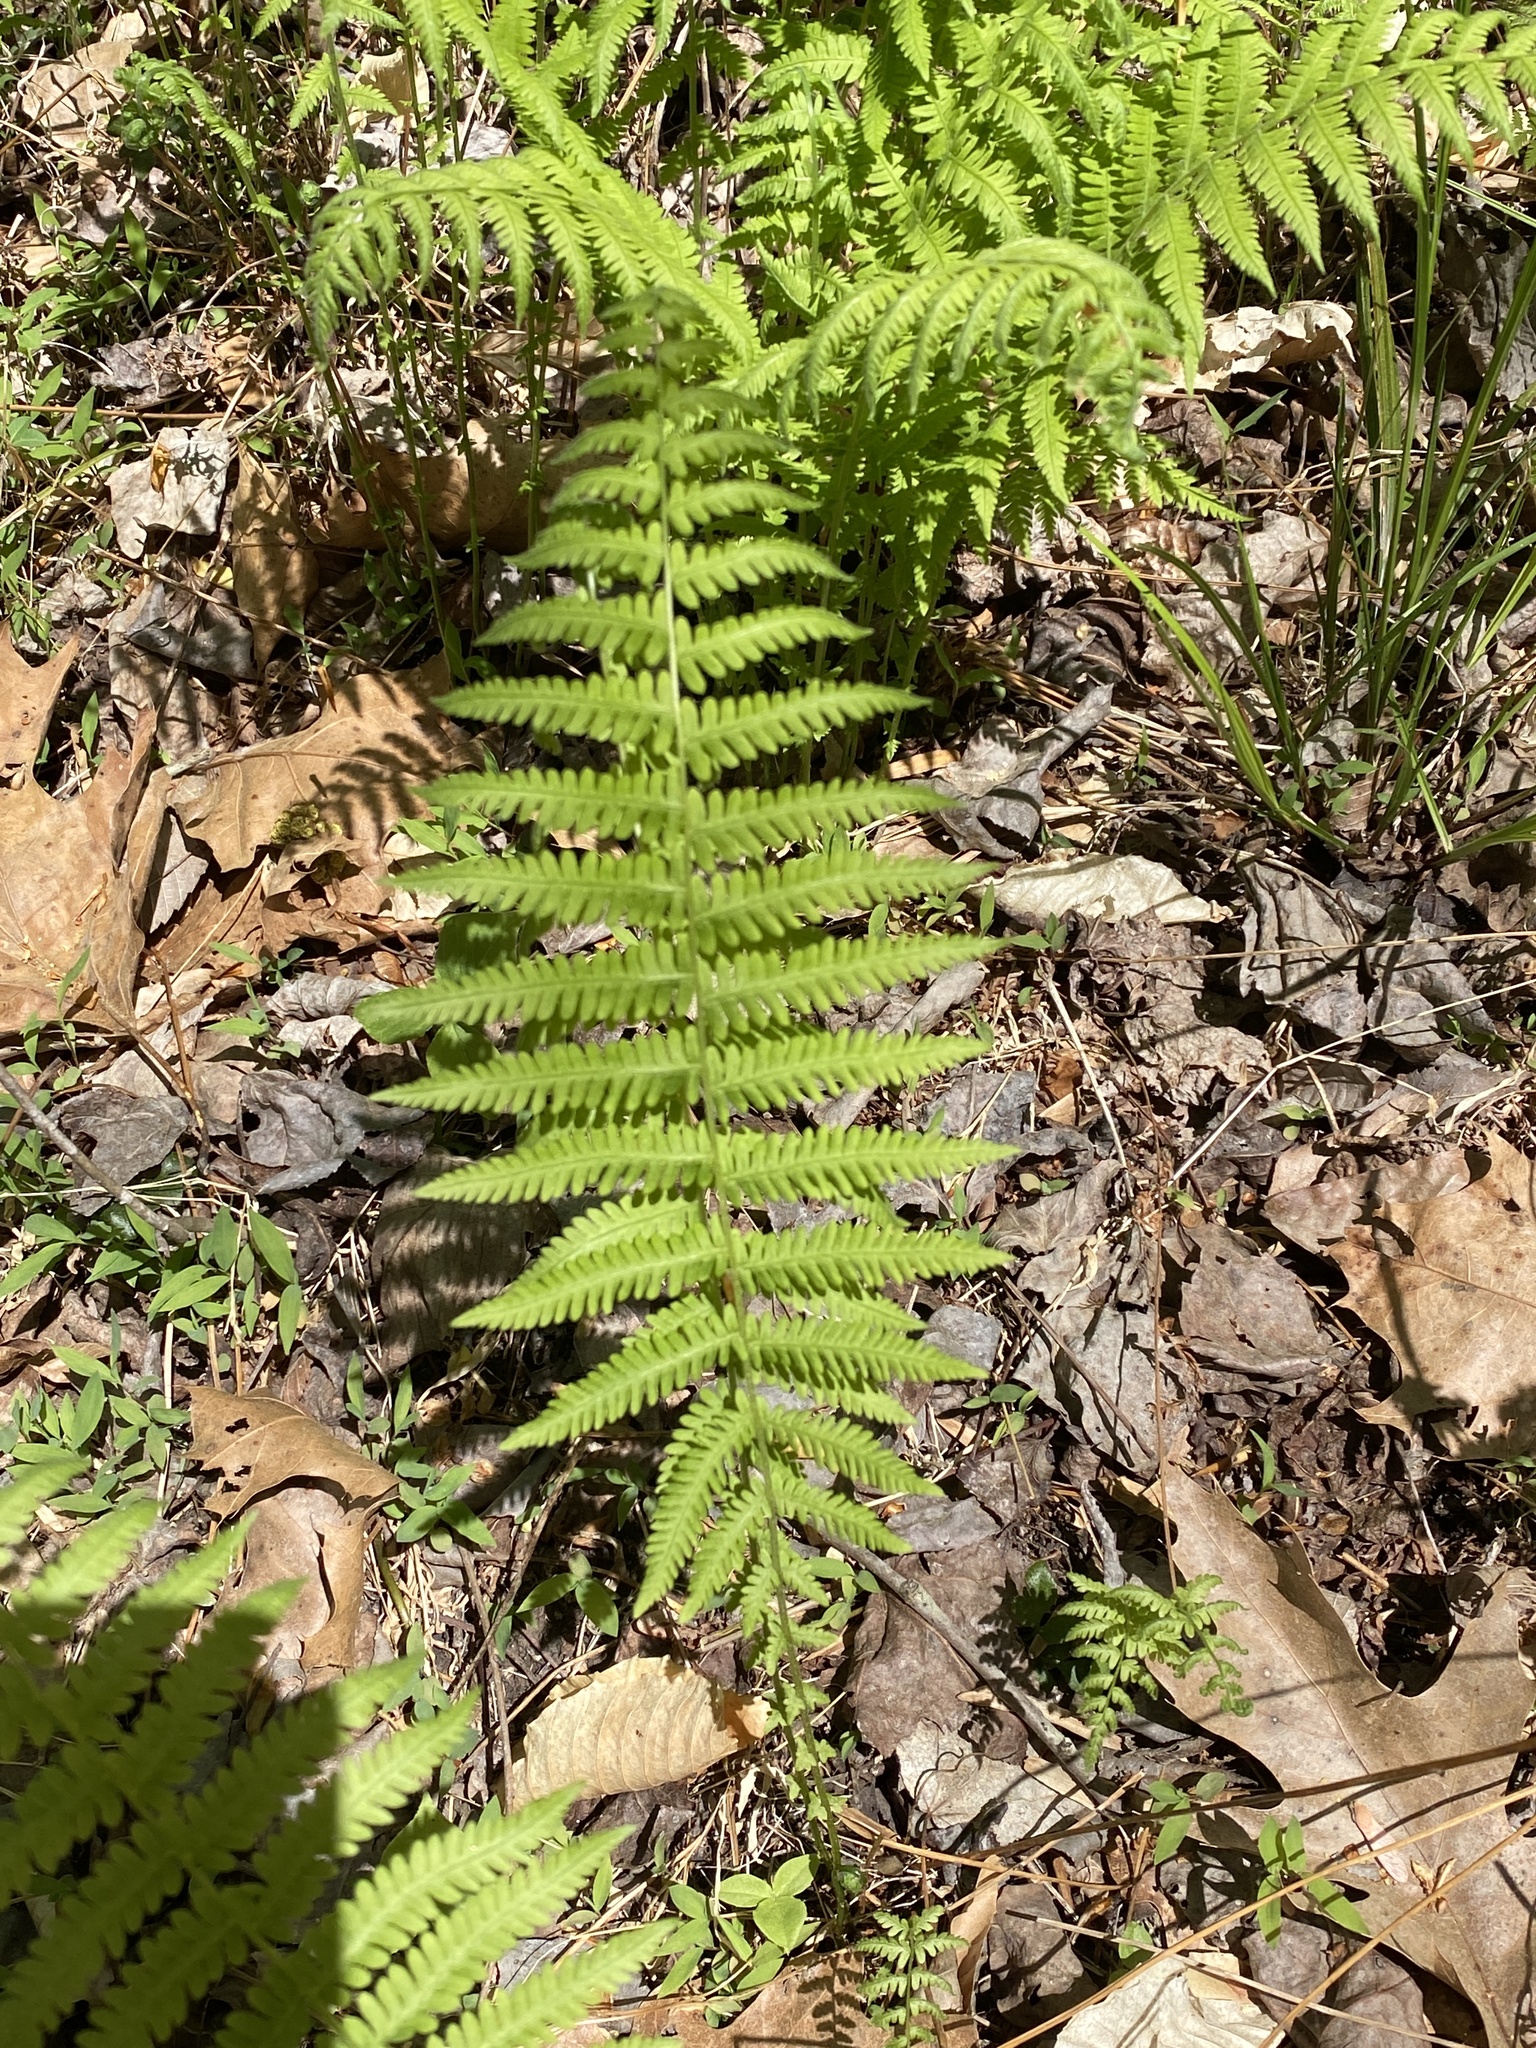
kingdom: Plantae
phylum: Tracheophyta
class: Polypodiopsida
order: Polypodiales
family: Thelypteridaceae
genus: Amauropelta
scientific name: Amauropelta noveboracensis
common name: New york fern
